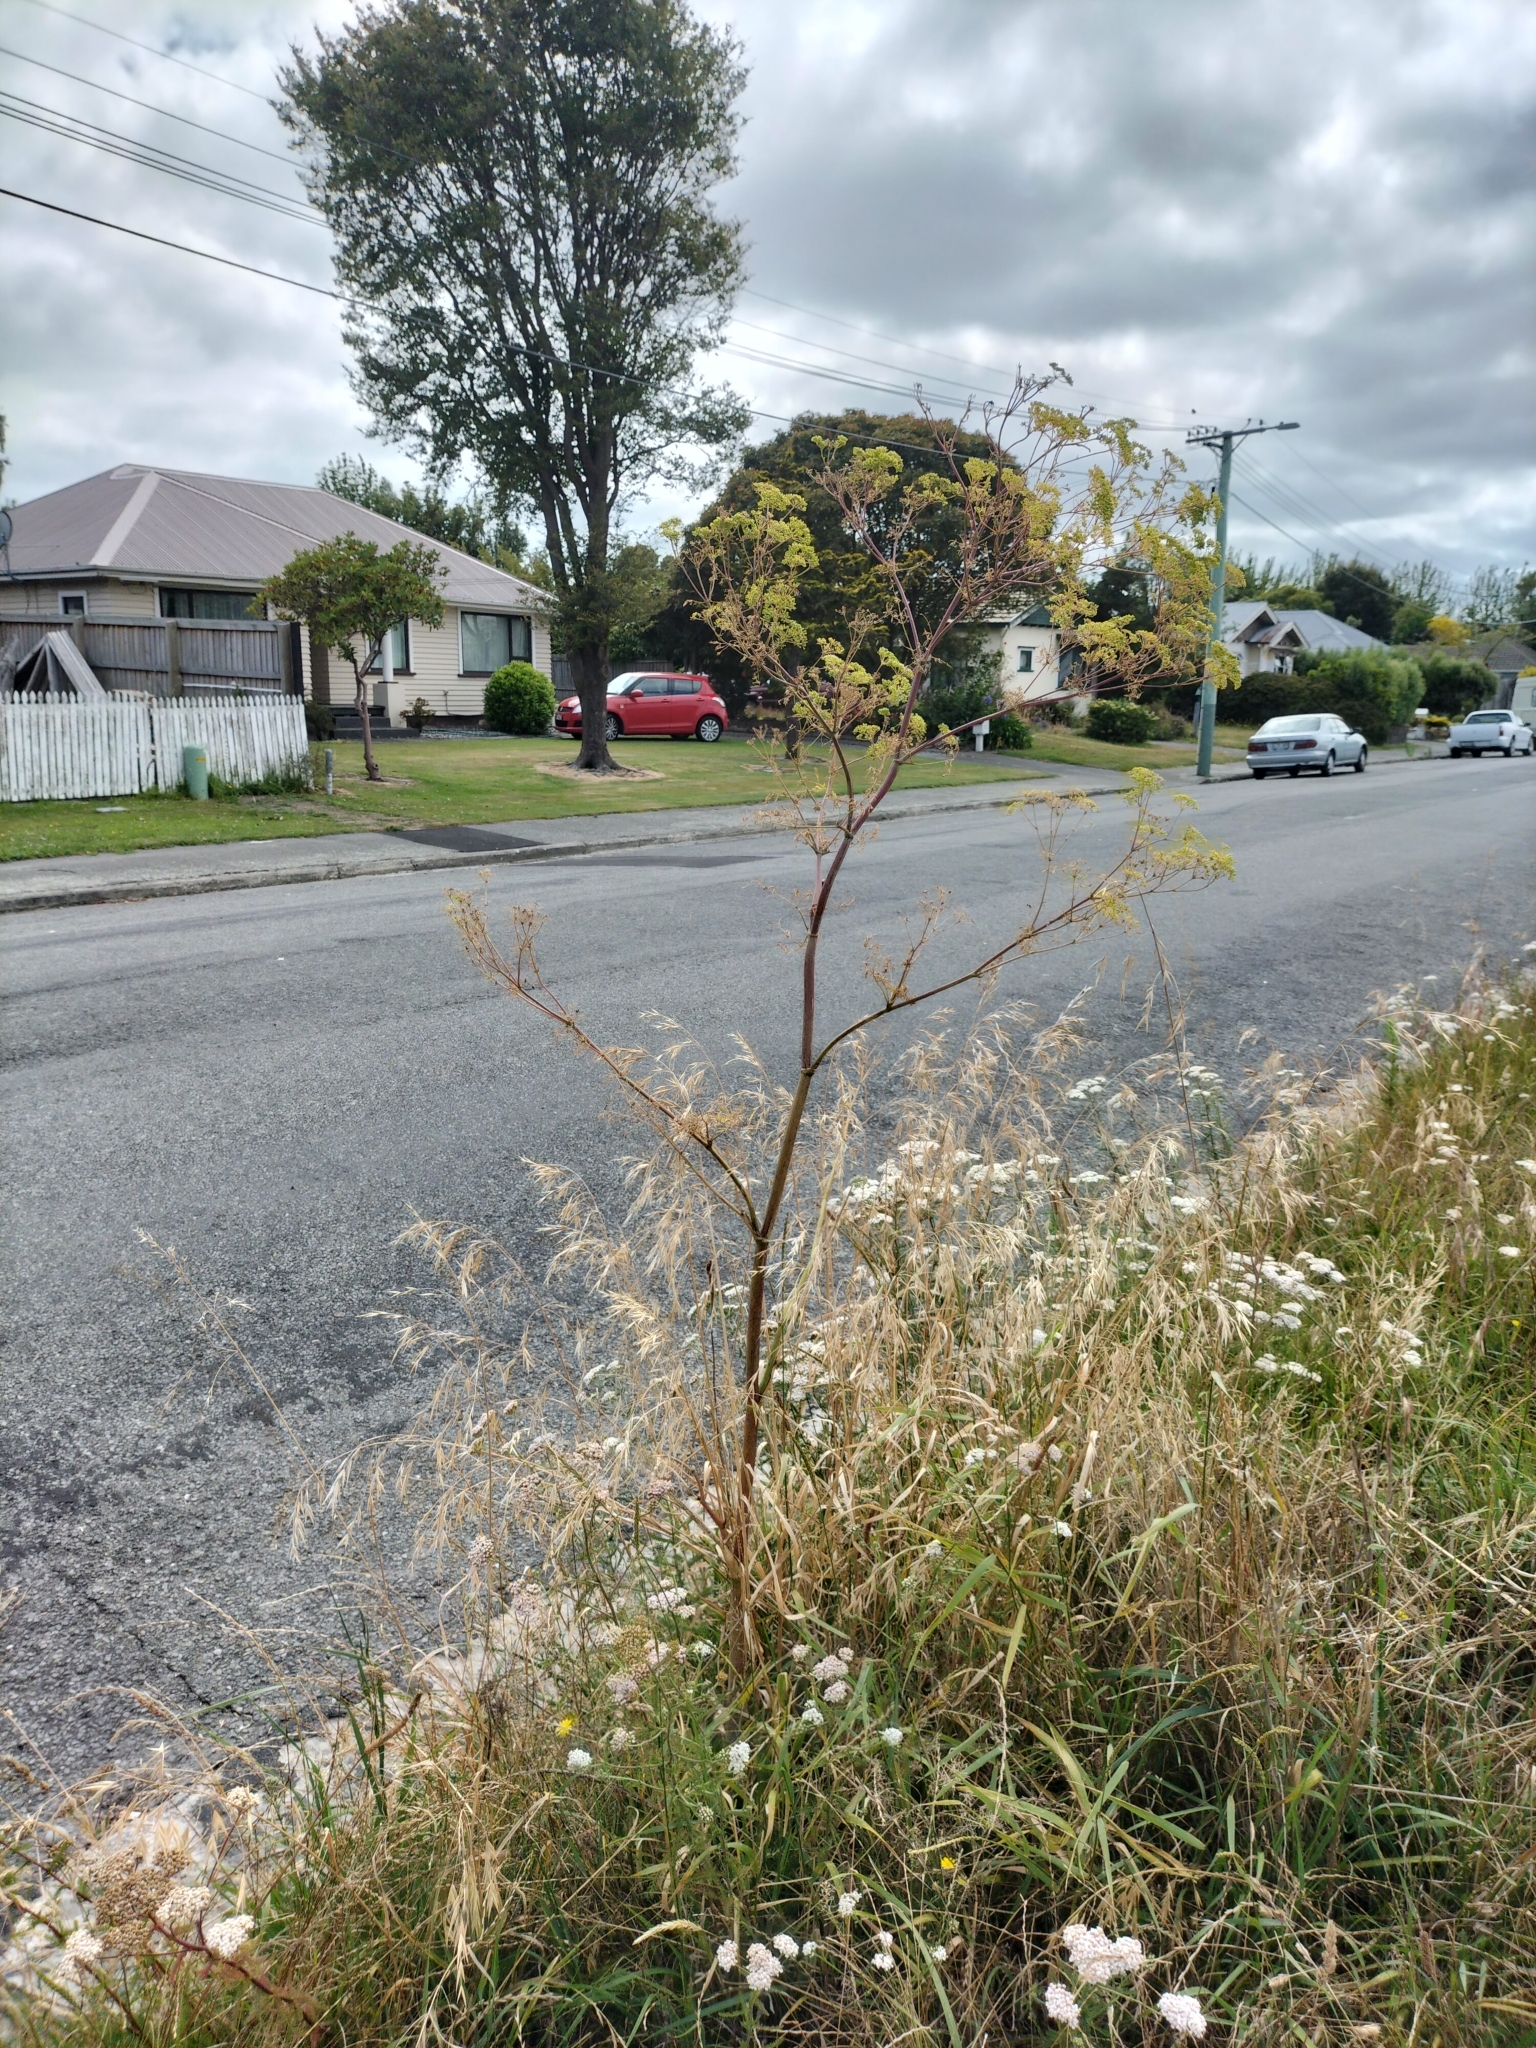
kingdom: Plantae
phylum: Tracheophyta
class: Magnoliopsida
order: Apiales
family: Apiaceae
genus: Conium
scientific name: Conium maculatum
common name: Hemlock
